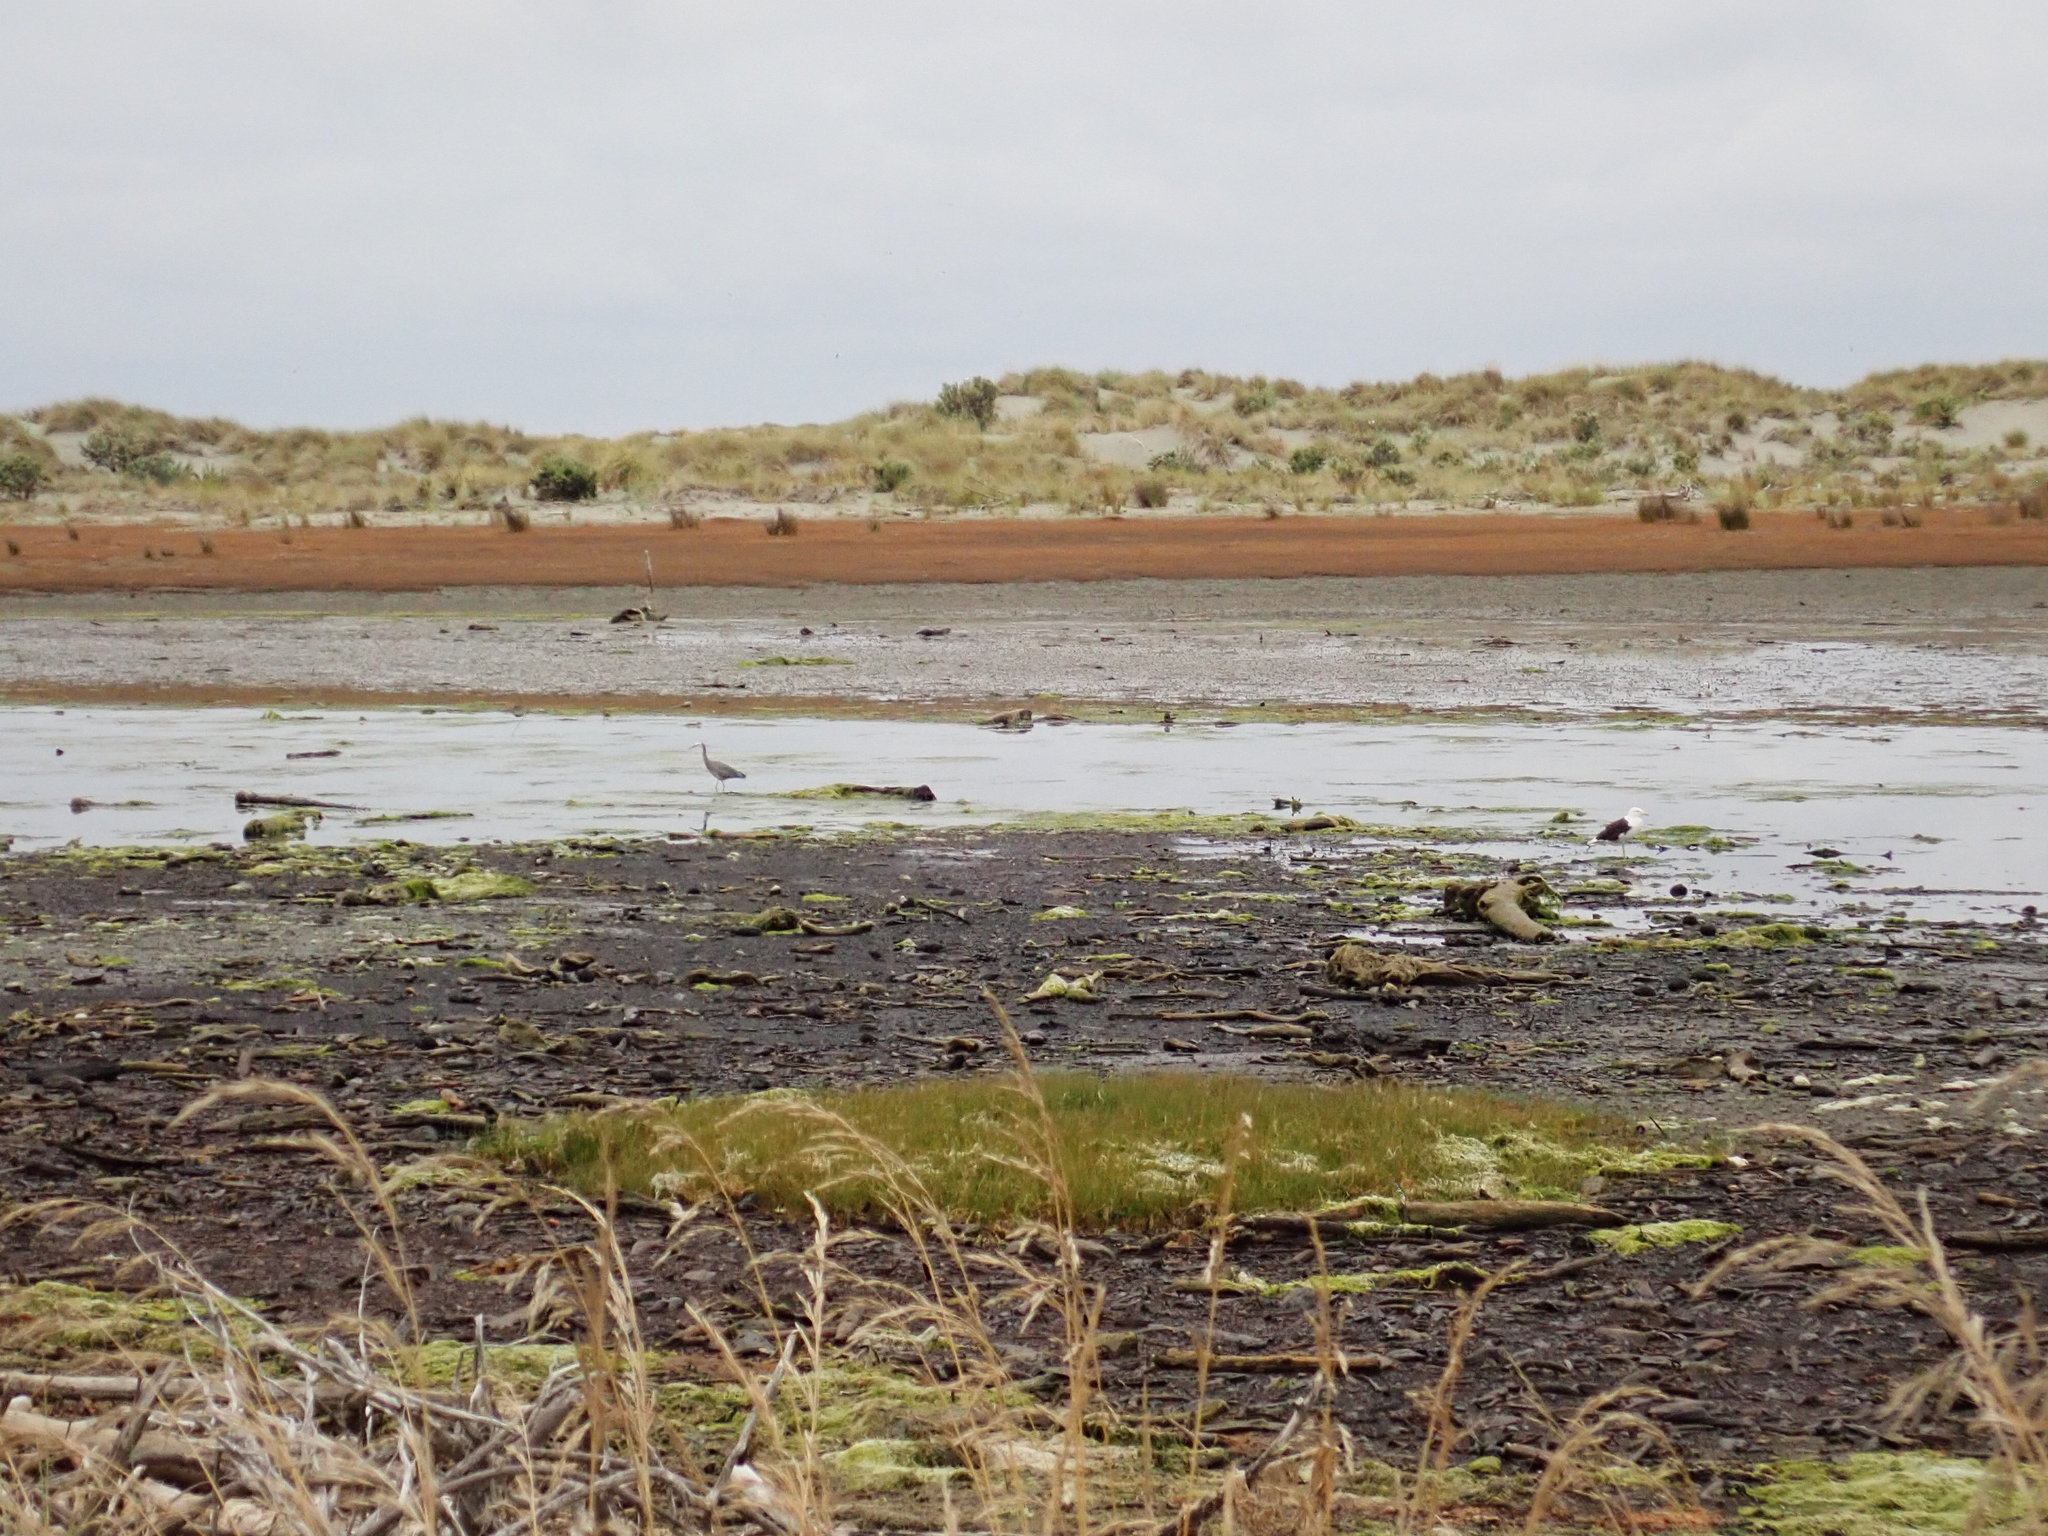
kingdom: Animalia
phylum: Chordata
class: Aves
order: Pelecaniformes
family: Ardeidae
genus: Egretta
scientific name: Egretta novaehollandiae
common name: White-faced heron
